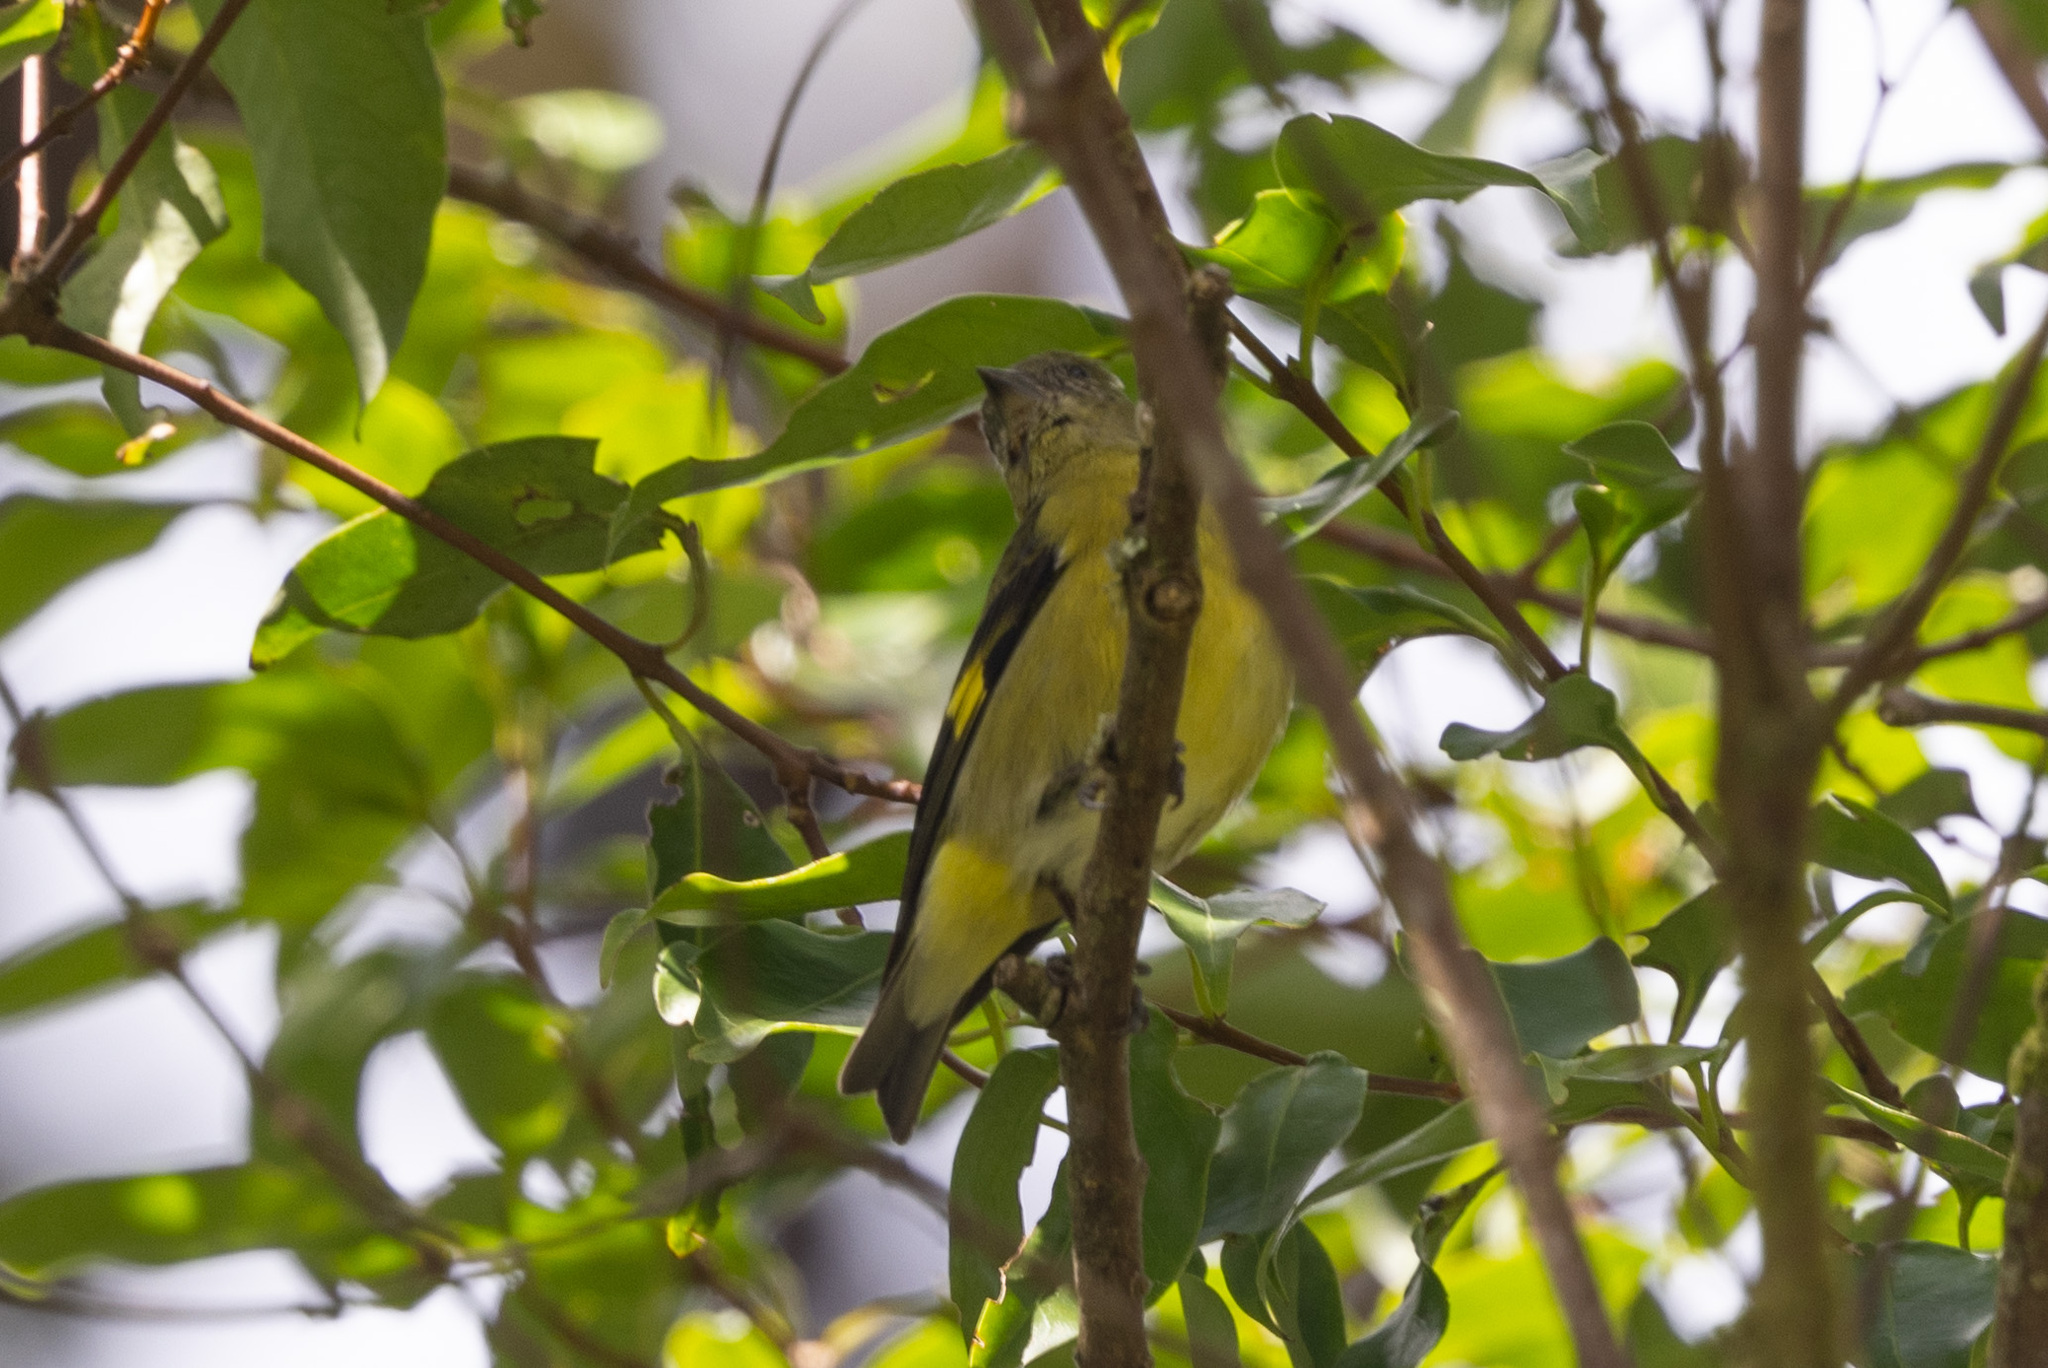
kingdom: Animalia
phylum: Chordata
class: Aves
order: Passeriformes
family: Fringillidae
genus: Spinus
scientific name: Spinus xanthogastrus
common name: Yellow-bellied siskin
